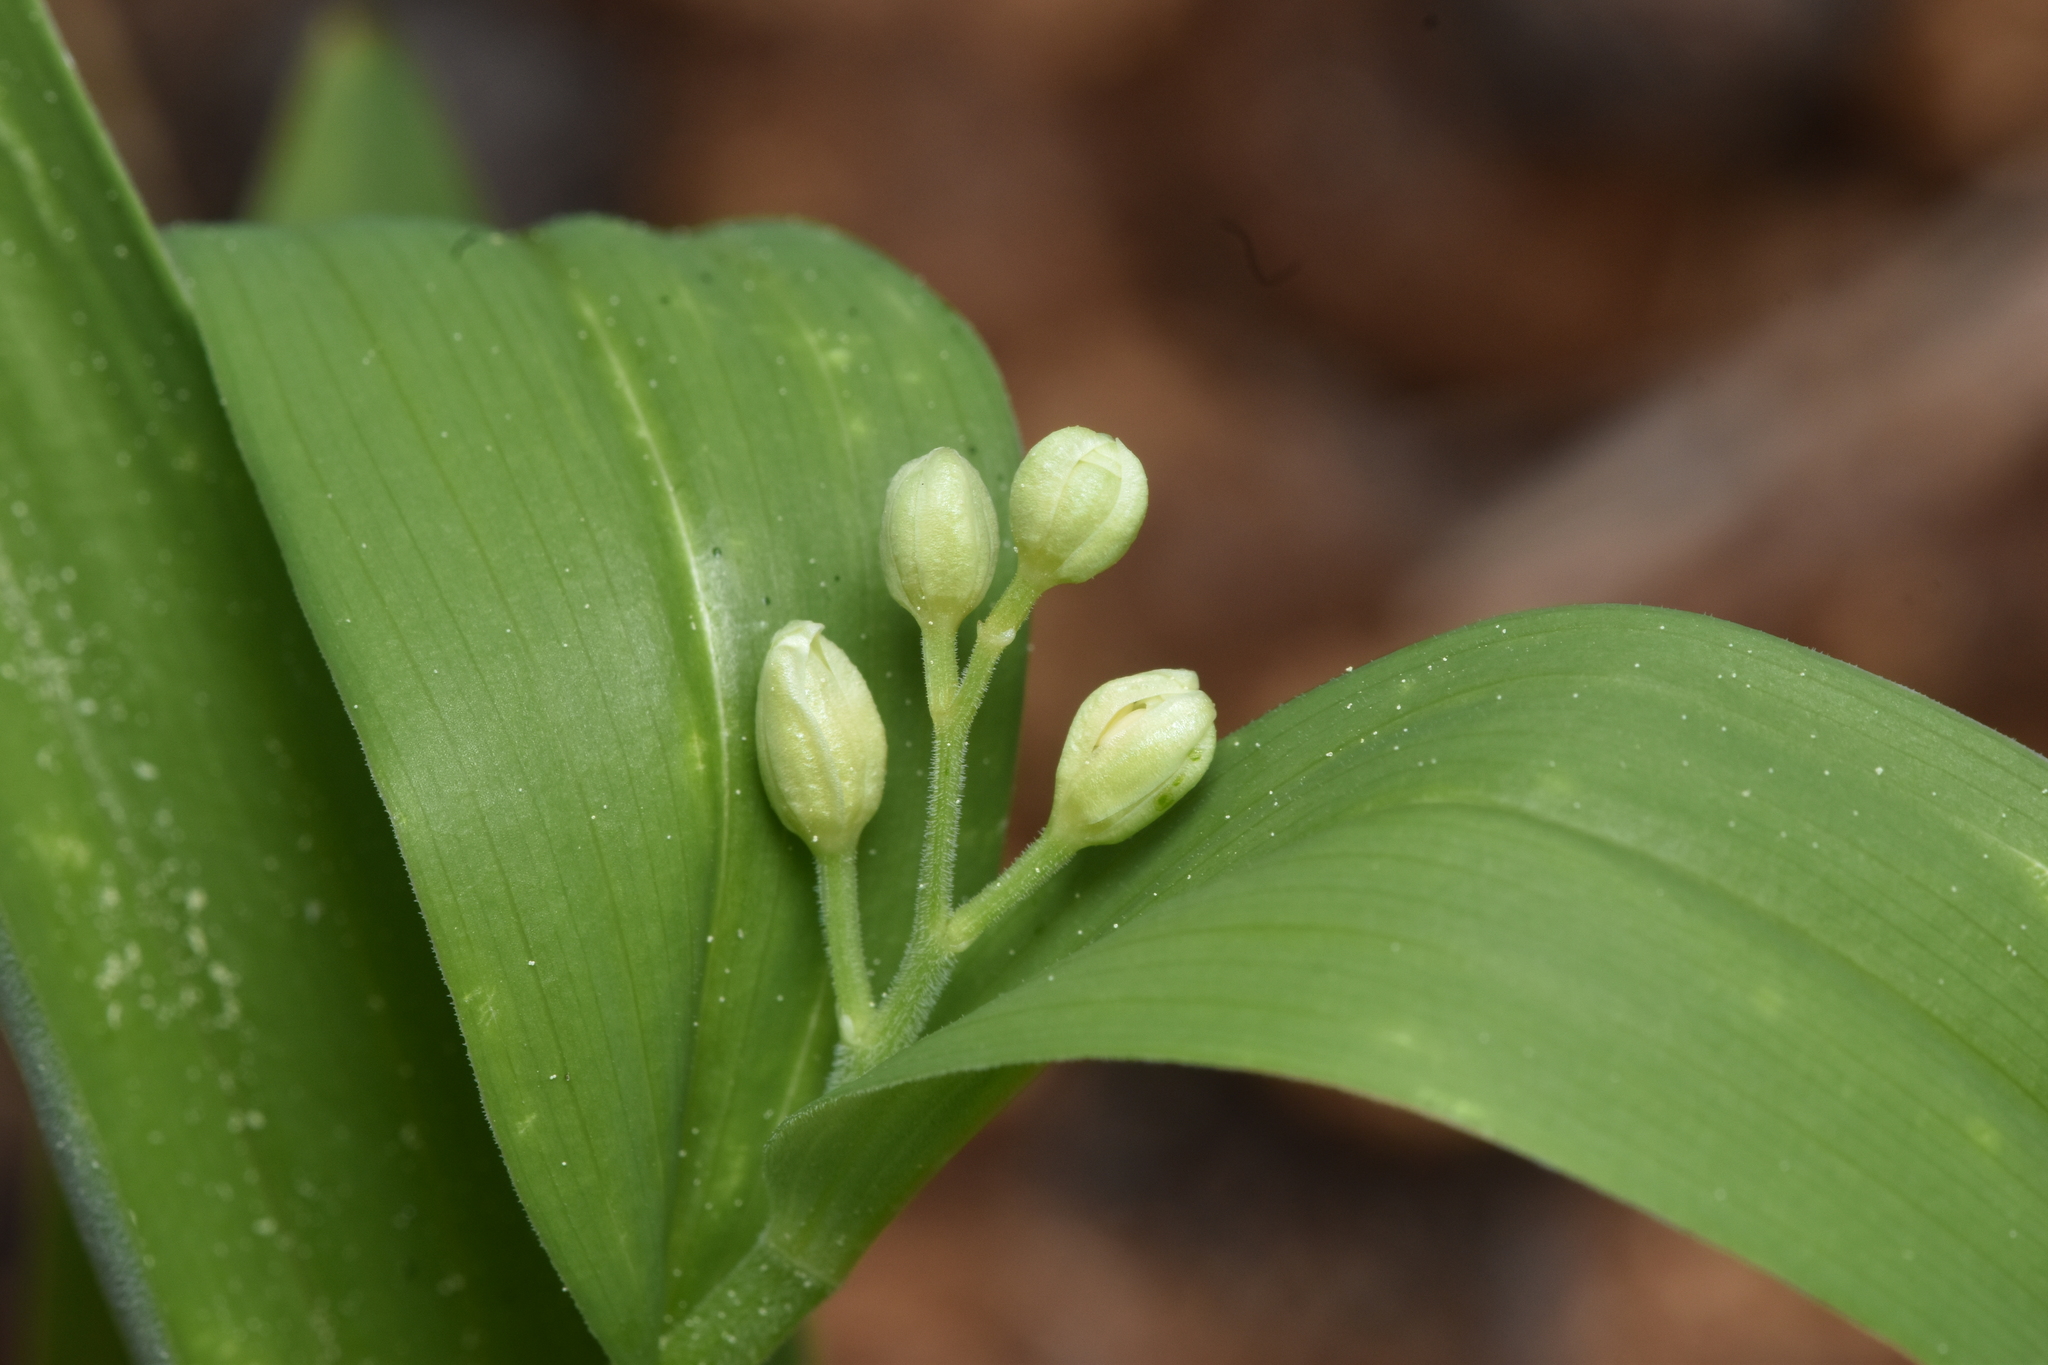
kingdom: Plantae
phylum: Tracheophyta
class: Liliopsida
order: Asparagales
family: Asparagaceae
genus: Maianthemum
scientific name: Maianthemum stellatum
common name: Little false solomon's seal
